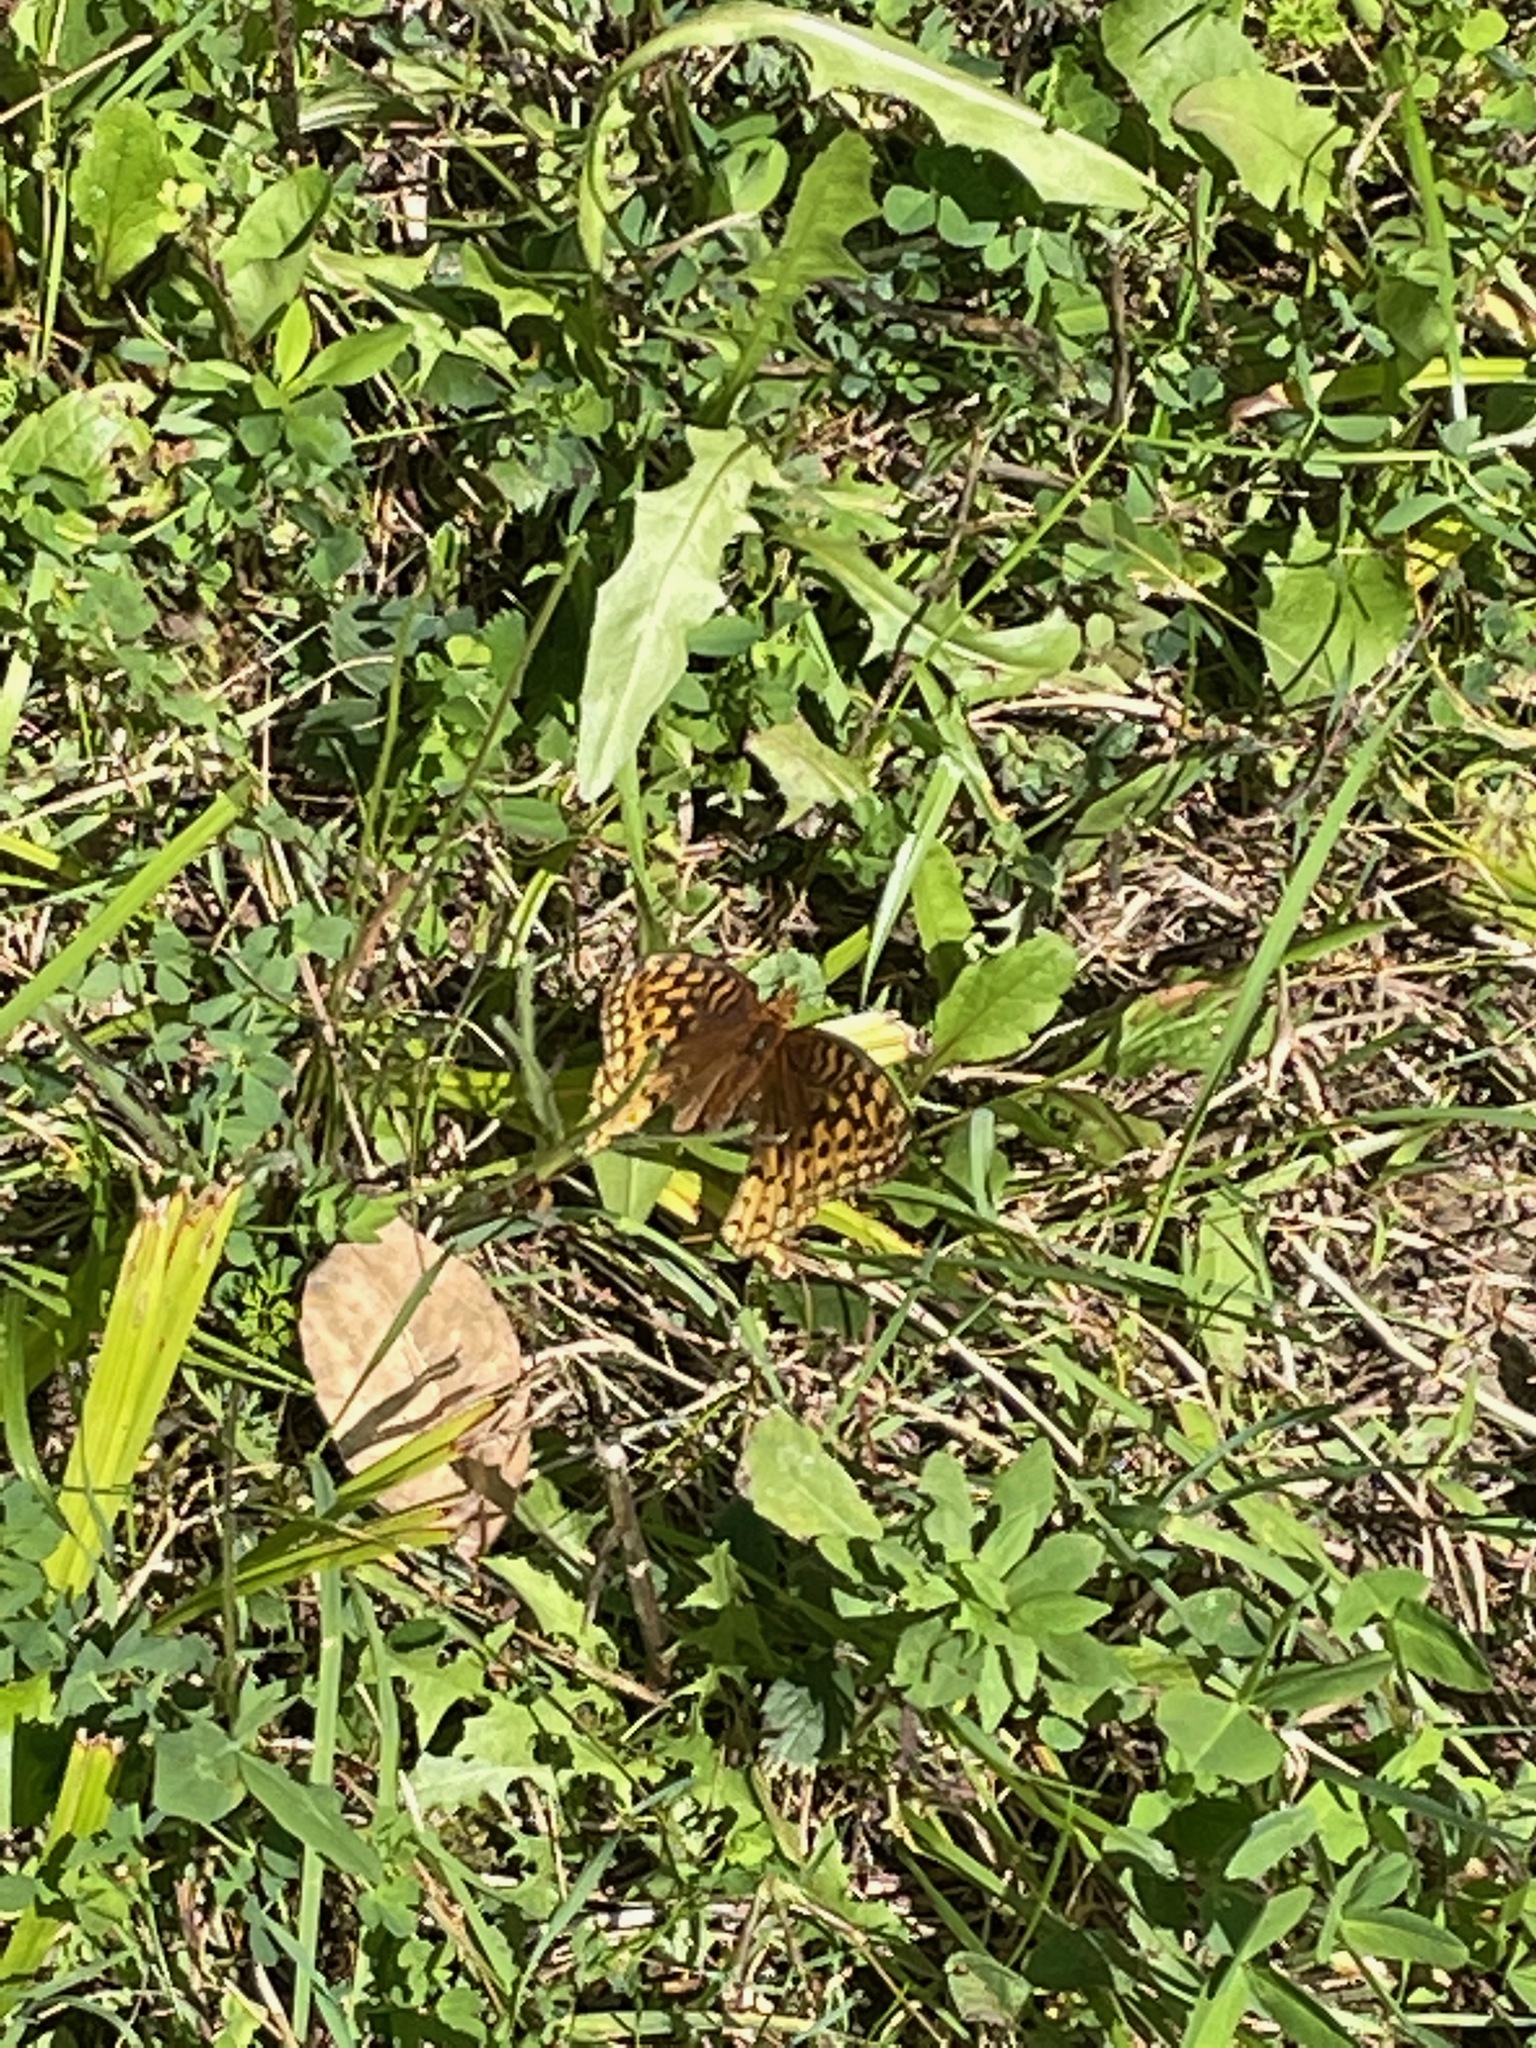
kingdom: Animalia
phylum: Arthropoda
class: Insecta
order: Lepidoptera
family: Nymphalidae
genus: Speyeria
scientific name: Speyeria cybele
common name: Great spangled fritillary
